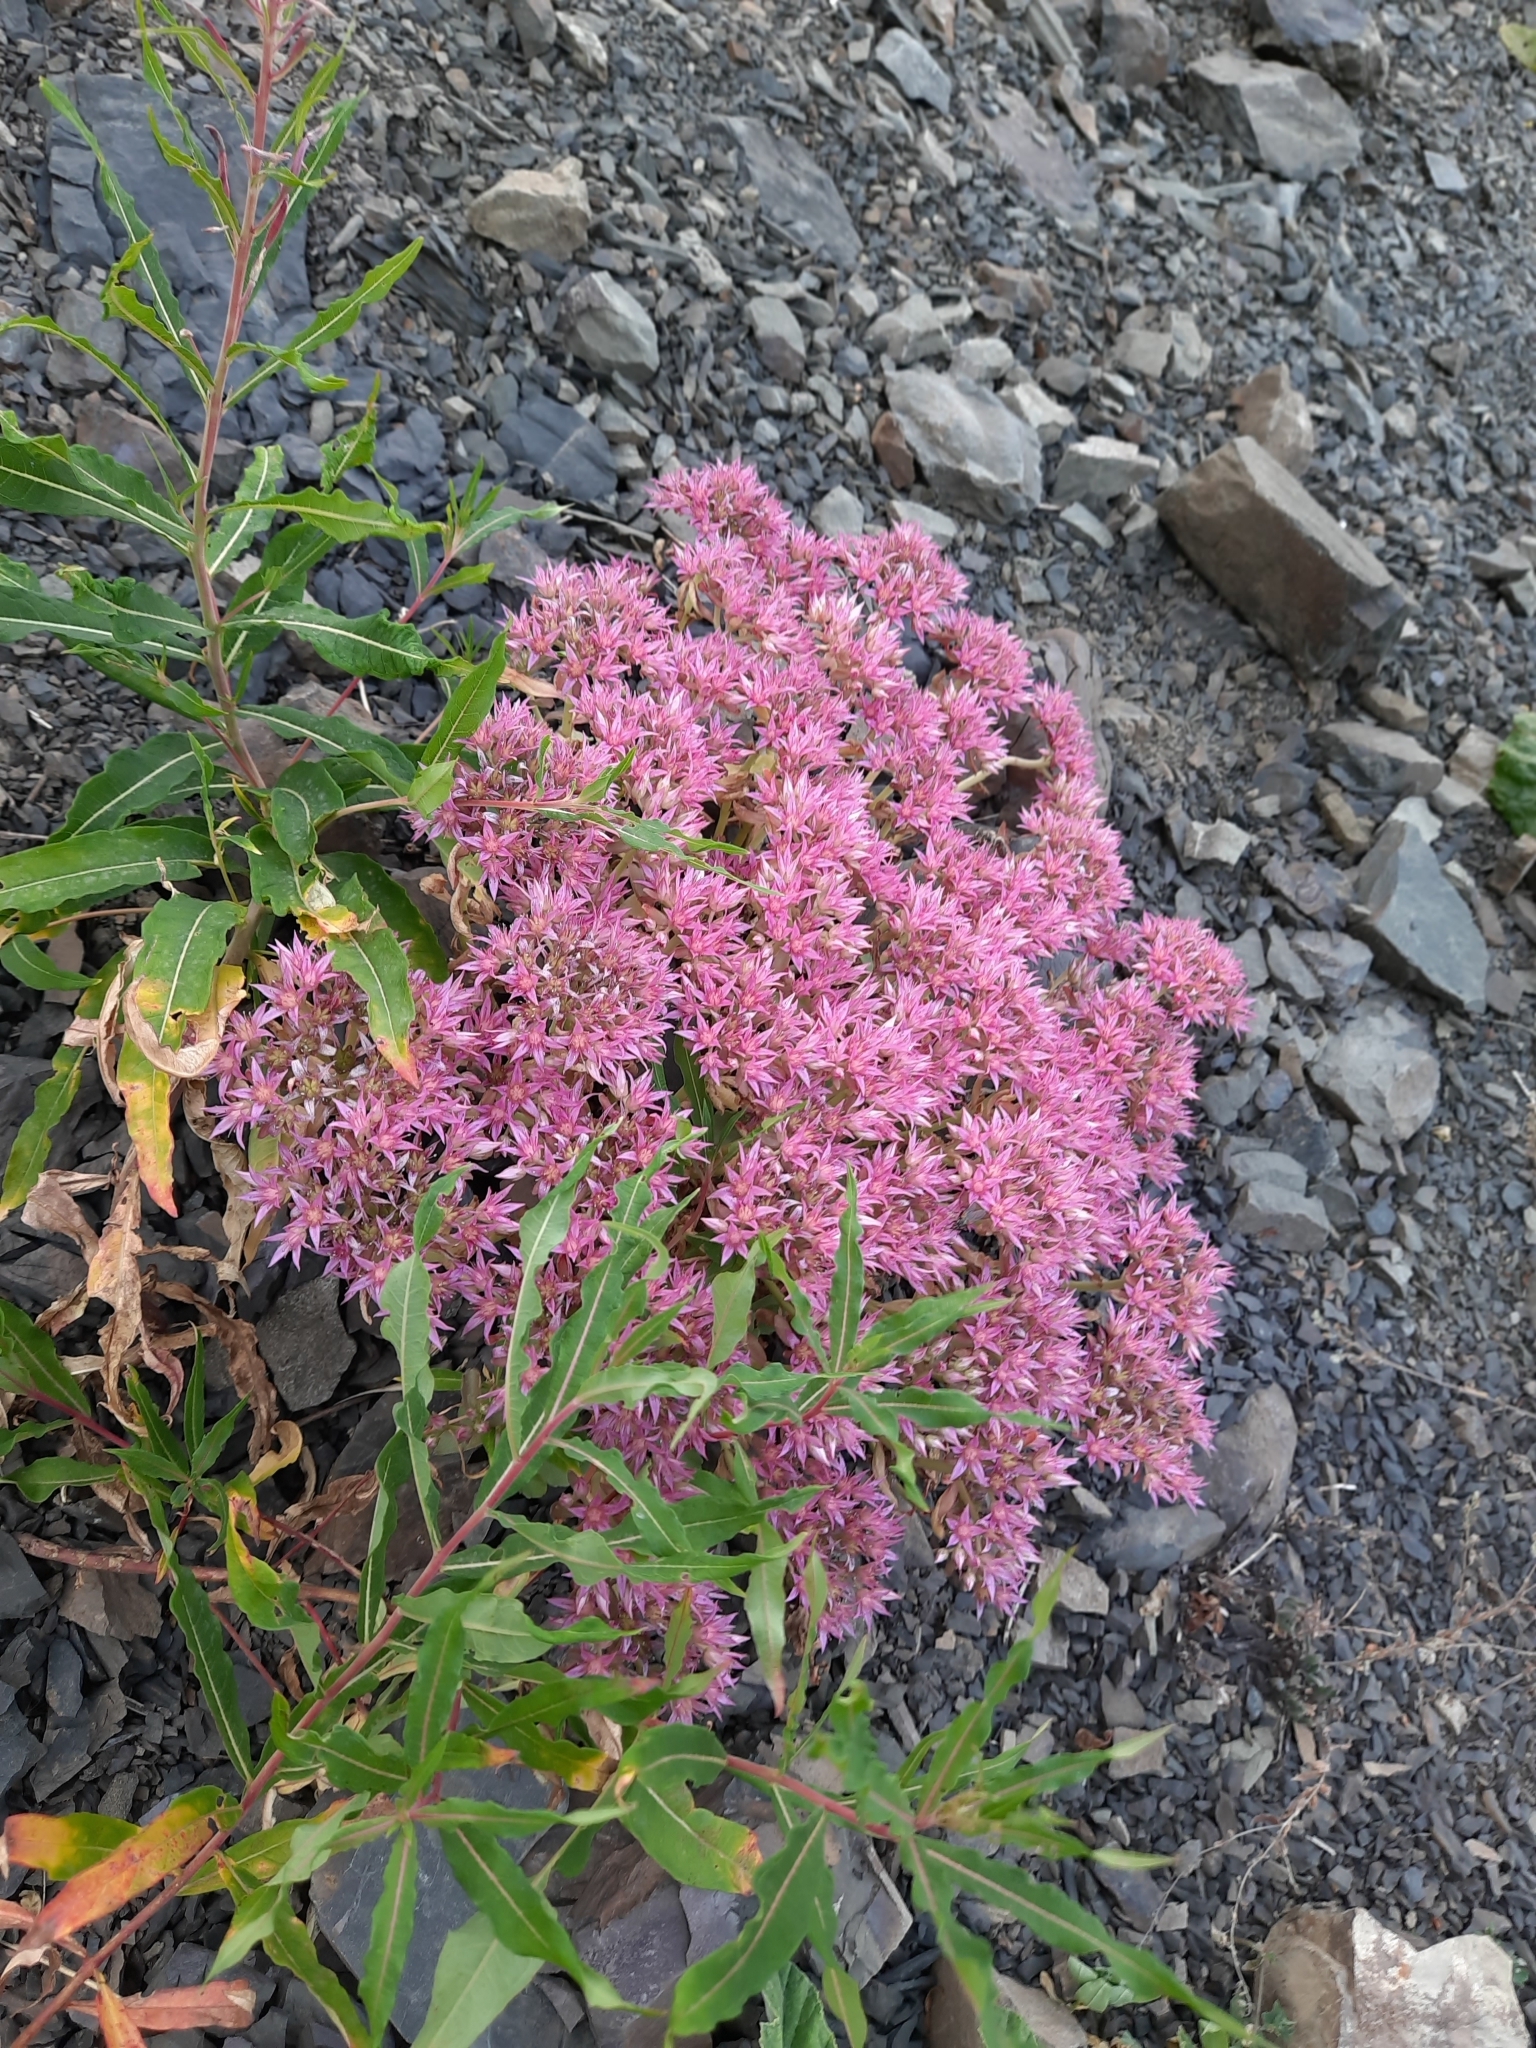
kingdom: Plantae
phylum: Tracheophyta
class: Magnoliopsida
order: Saxifragales
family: Crassulaceae
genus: Phedimus
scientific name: Phedimus spurius
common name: Caucasian stonecrop
